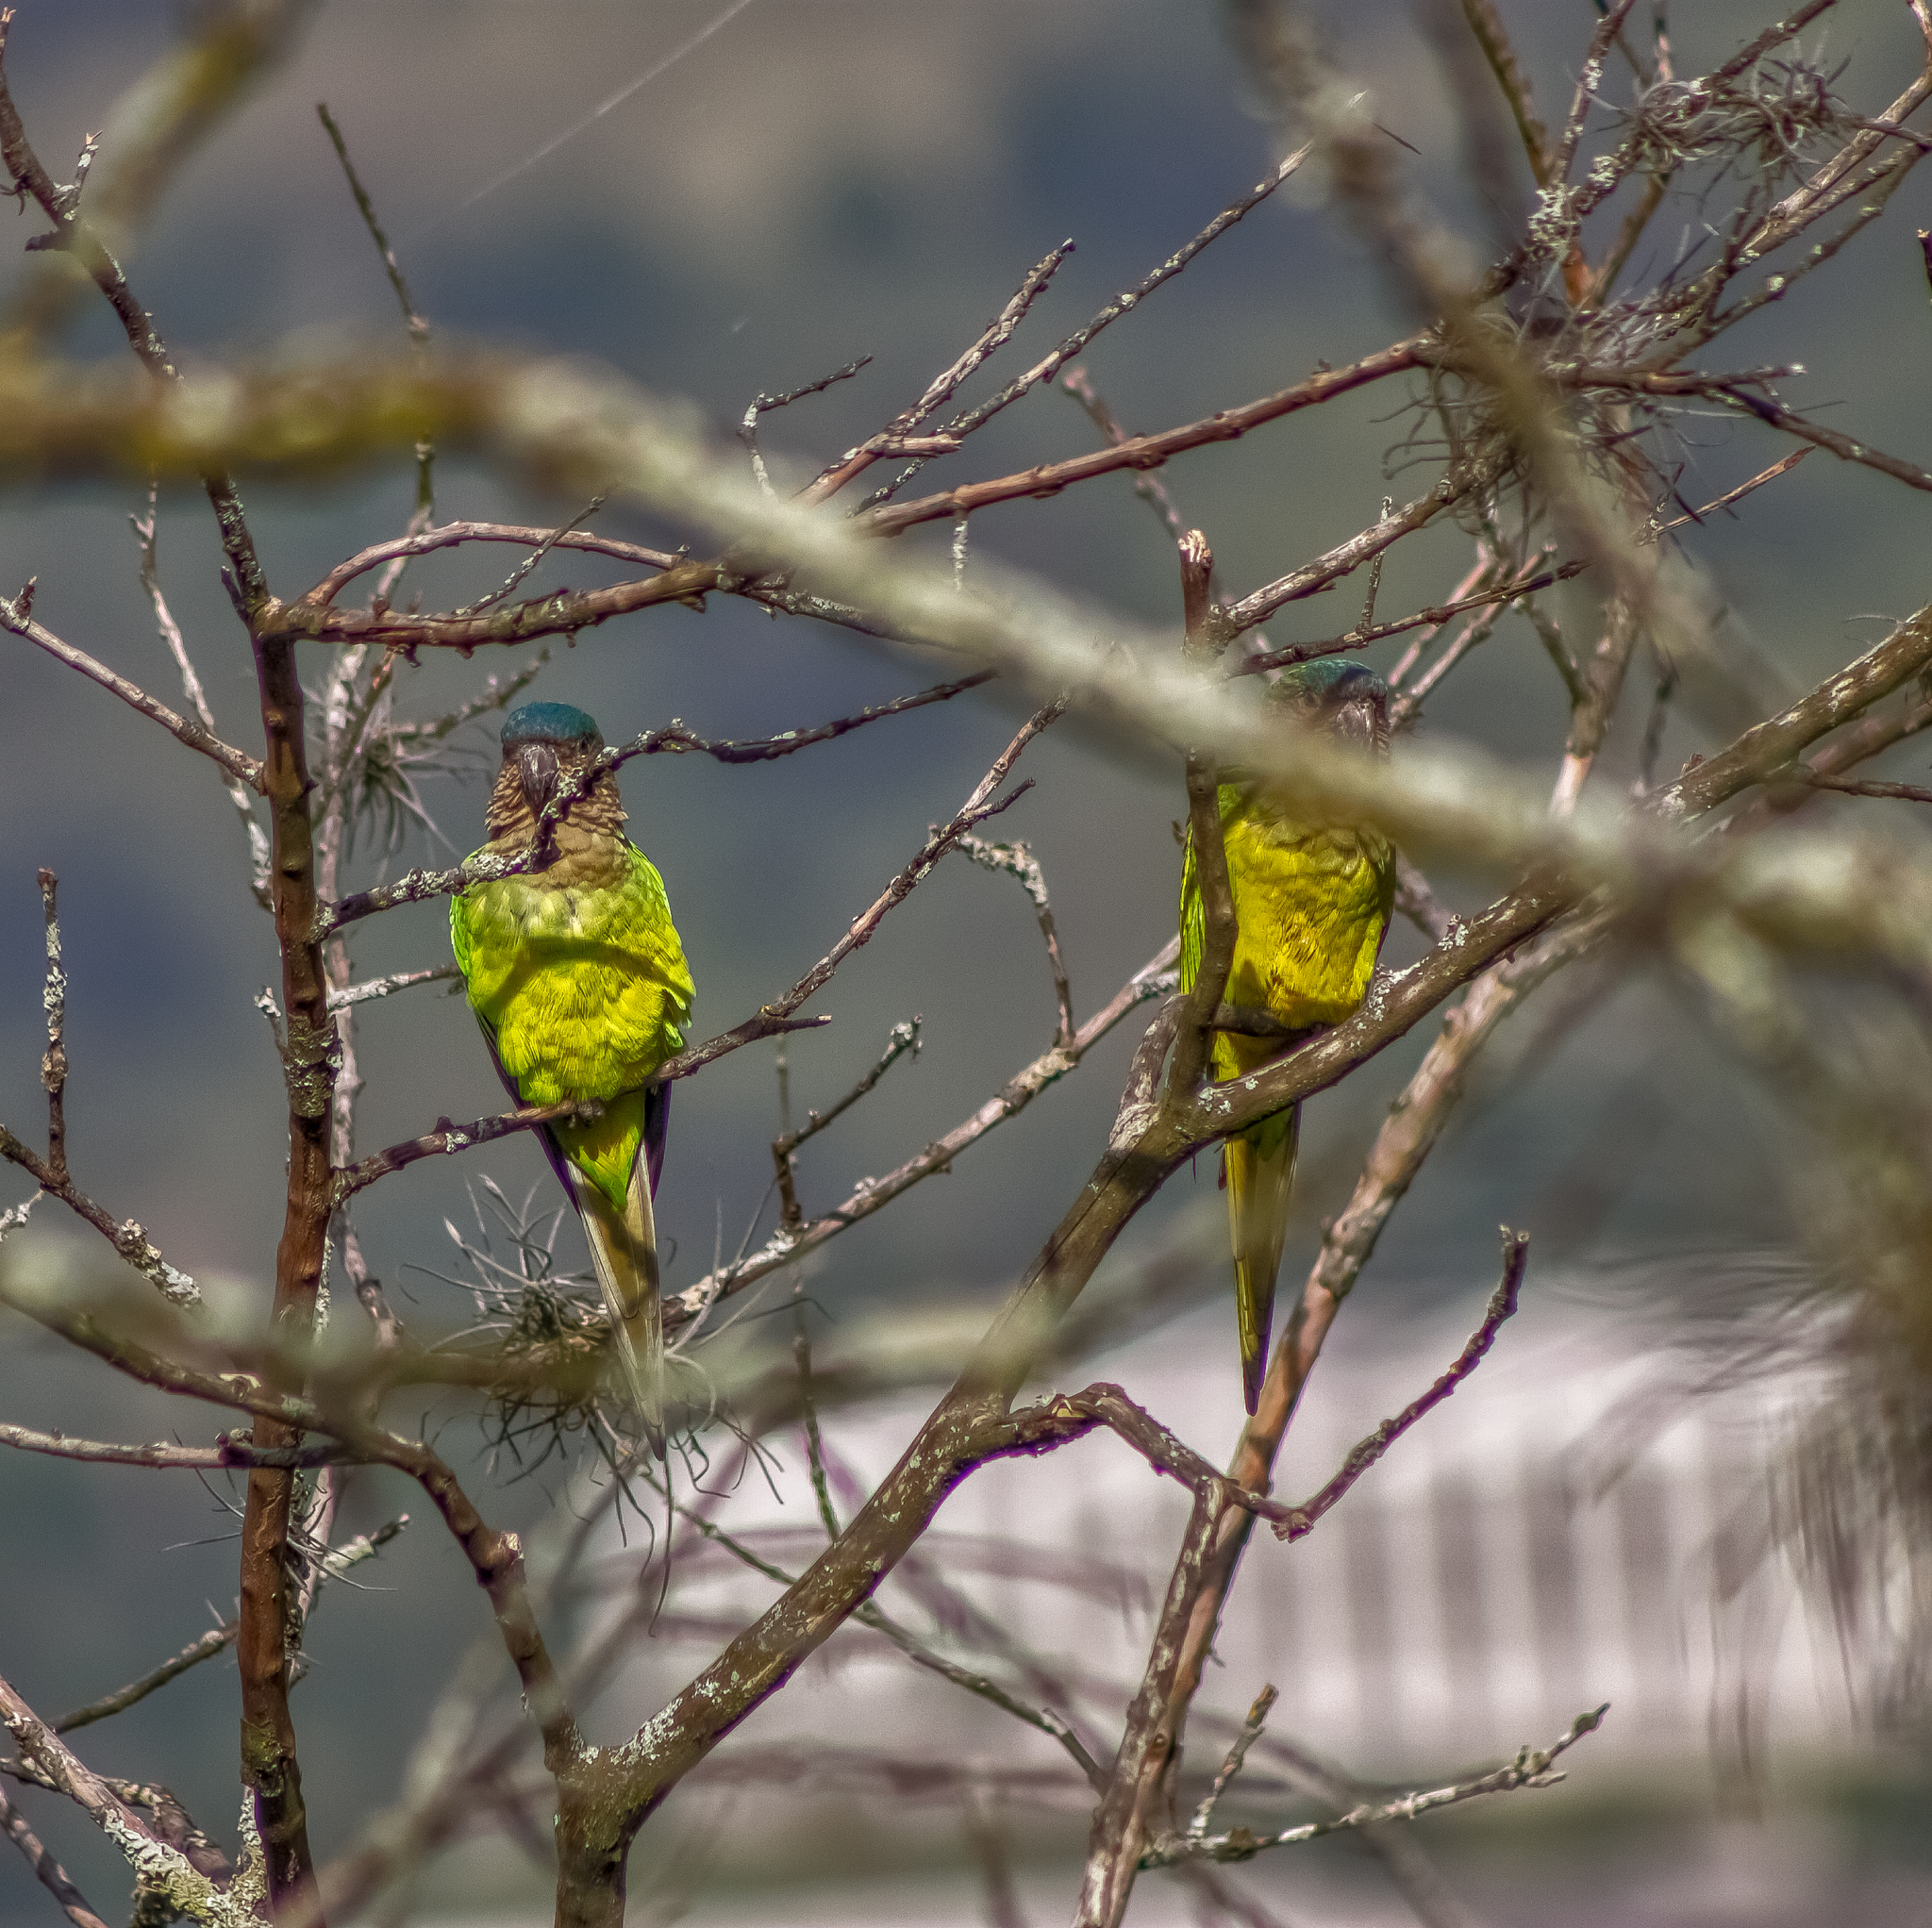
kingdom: Animalia
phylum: Chordata
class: Aves
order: Psittaciformes
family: Psittacidae
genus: Aratinga
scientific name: Aratinga pertinax
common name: Brown-throated parakeet
